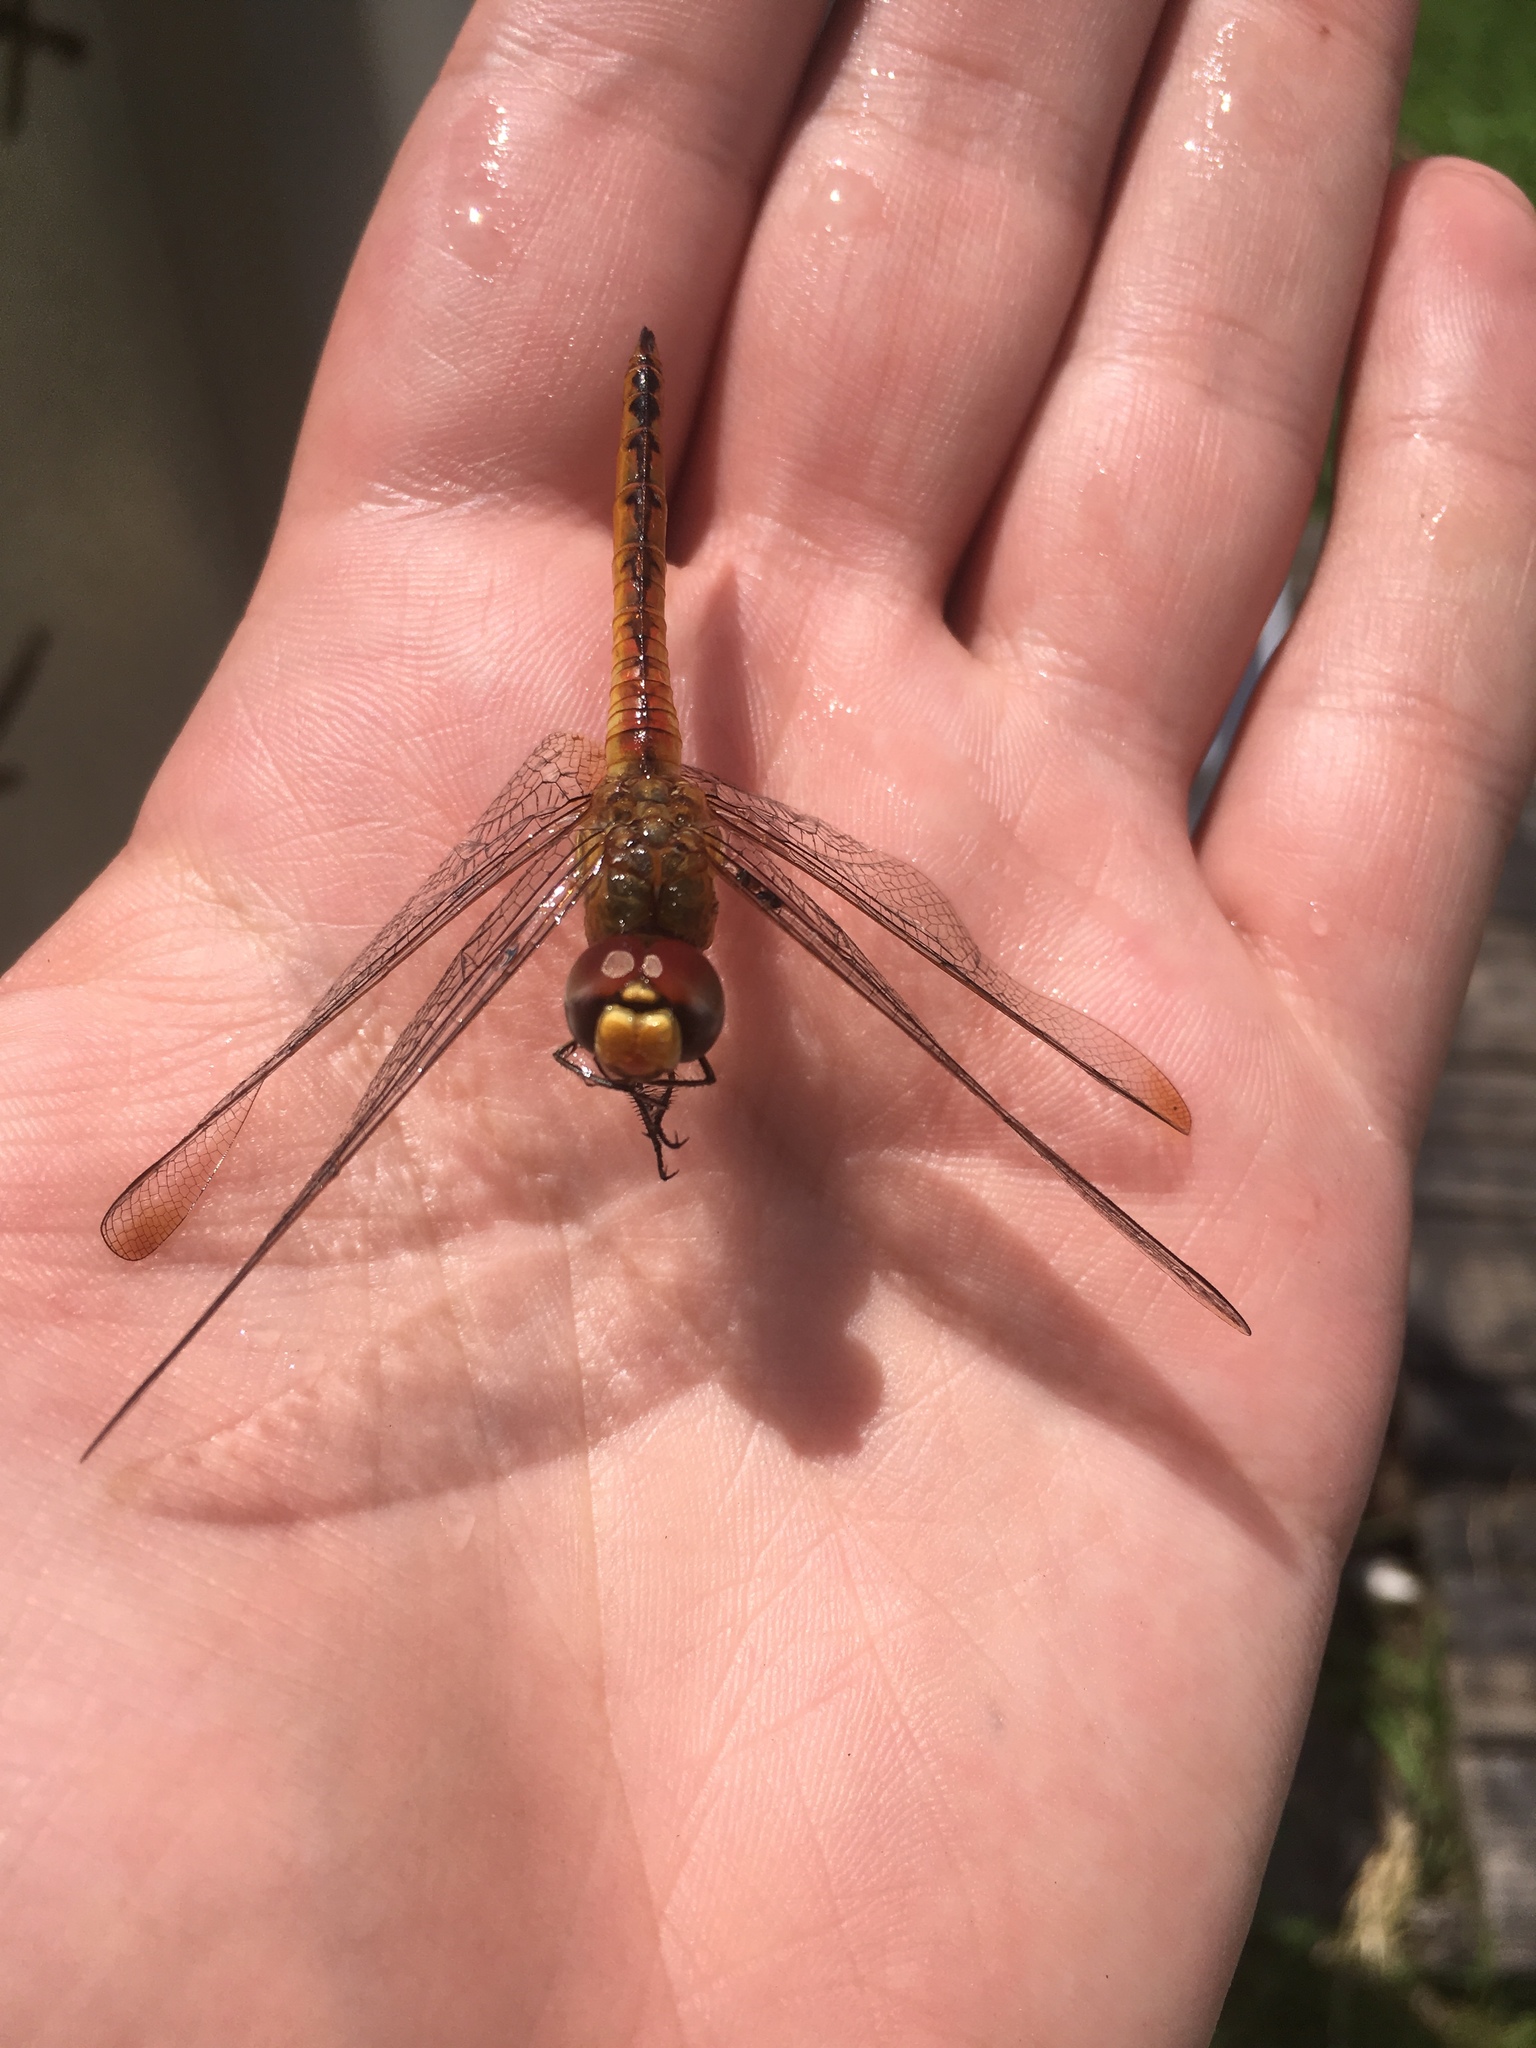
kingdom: Animalia
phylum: Arthropoda
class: Insecta
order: Odonata
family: Libellulidae
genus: Pantala
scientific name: Pantala flavescens
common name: Wandering glider
